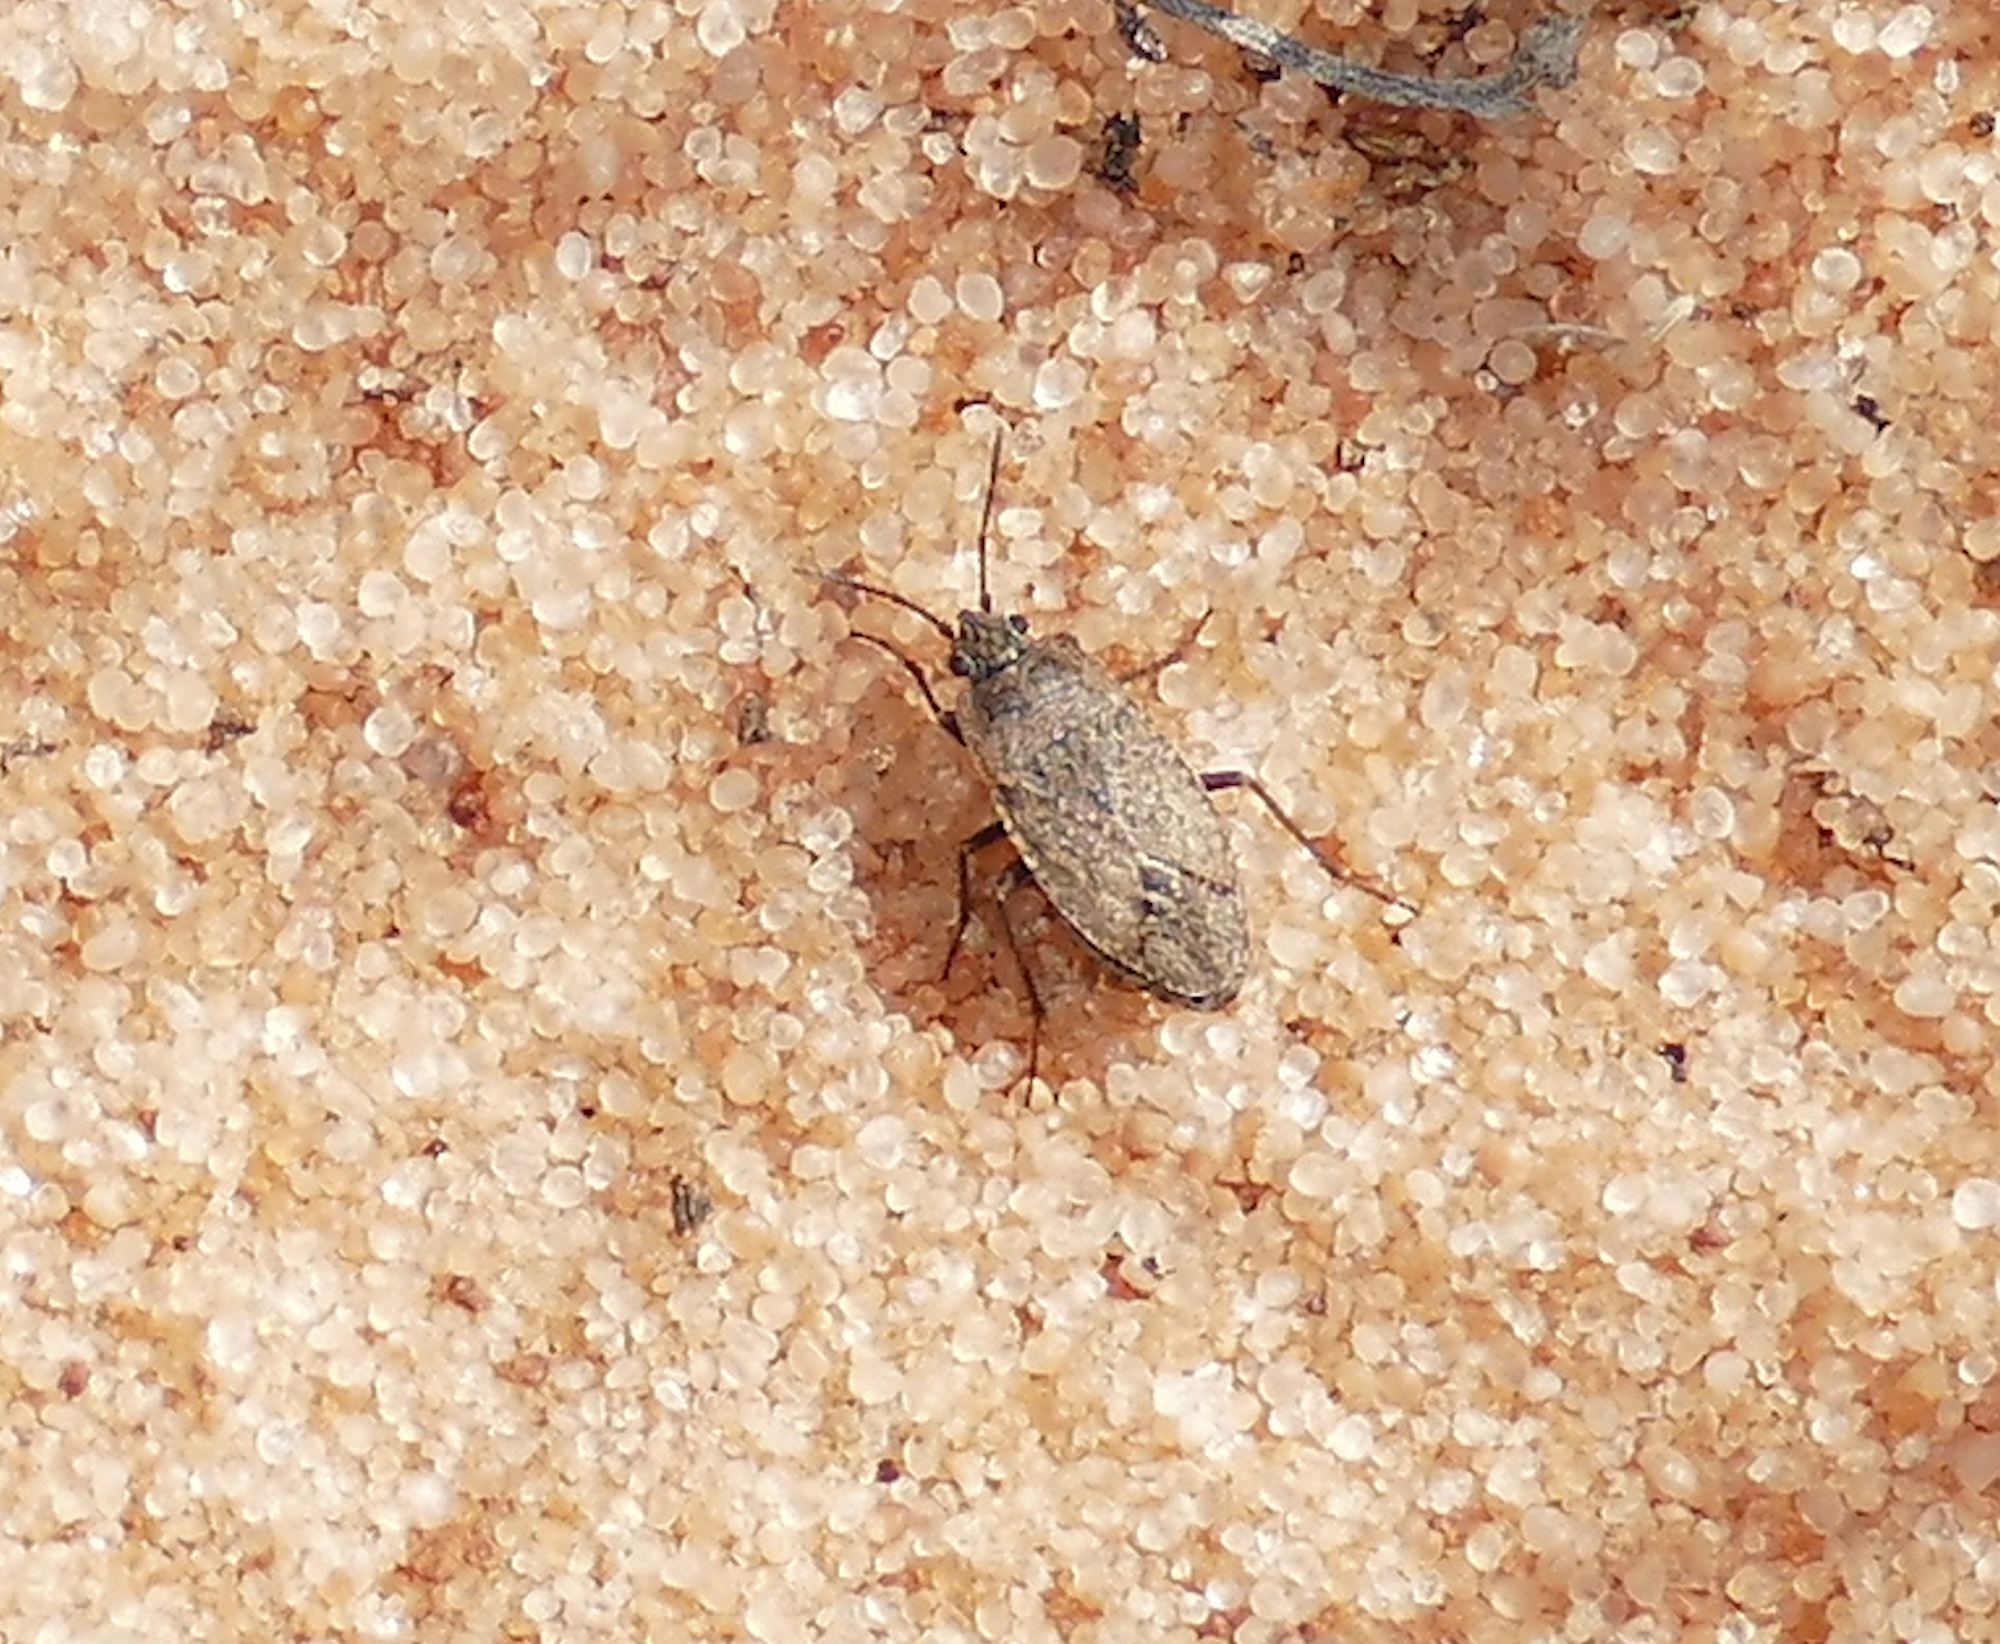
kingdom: Animalia
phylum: Arthropoda
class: Insecta
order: Hemiptera
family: Rhyparochromidae
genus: Emblethis
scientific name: Emblethis vicarius
